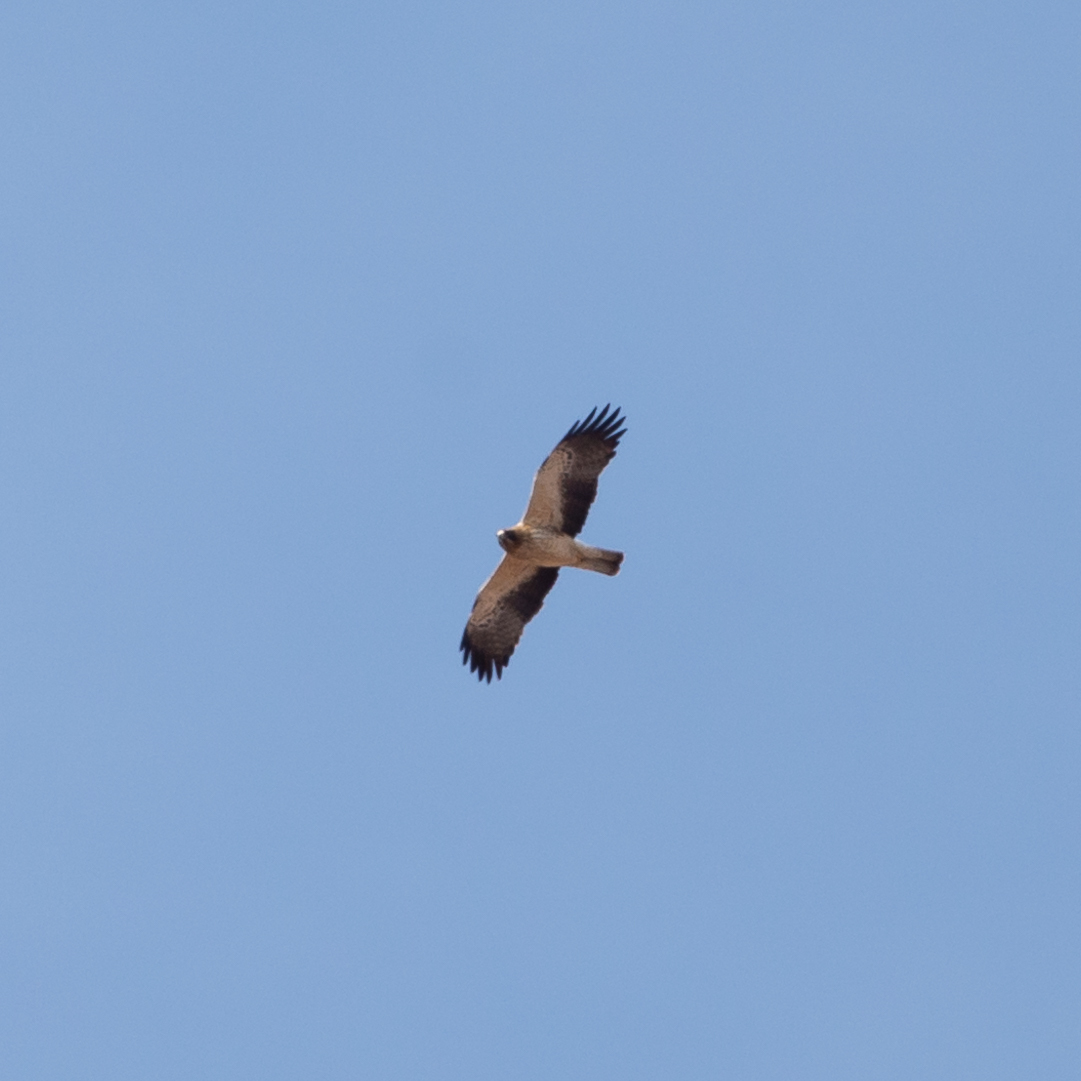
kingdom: Animalia
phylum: Chordata
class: Aves
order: Accipitriformes
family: Accipitridae
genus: Hieraaetus
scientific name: Hieraaetus pennatus
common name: Booted eagle
